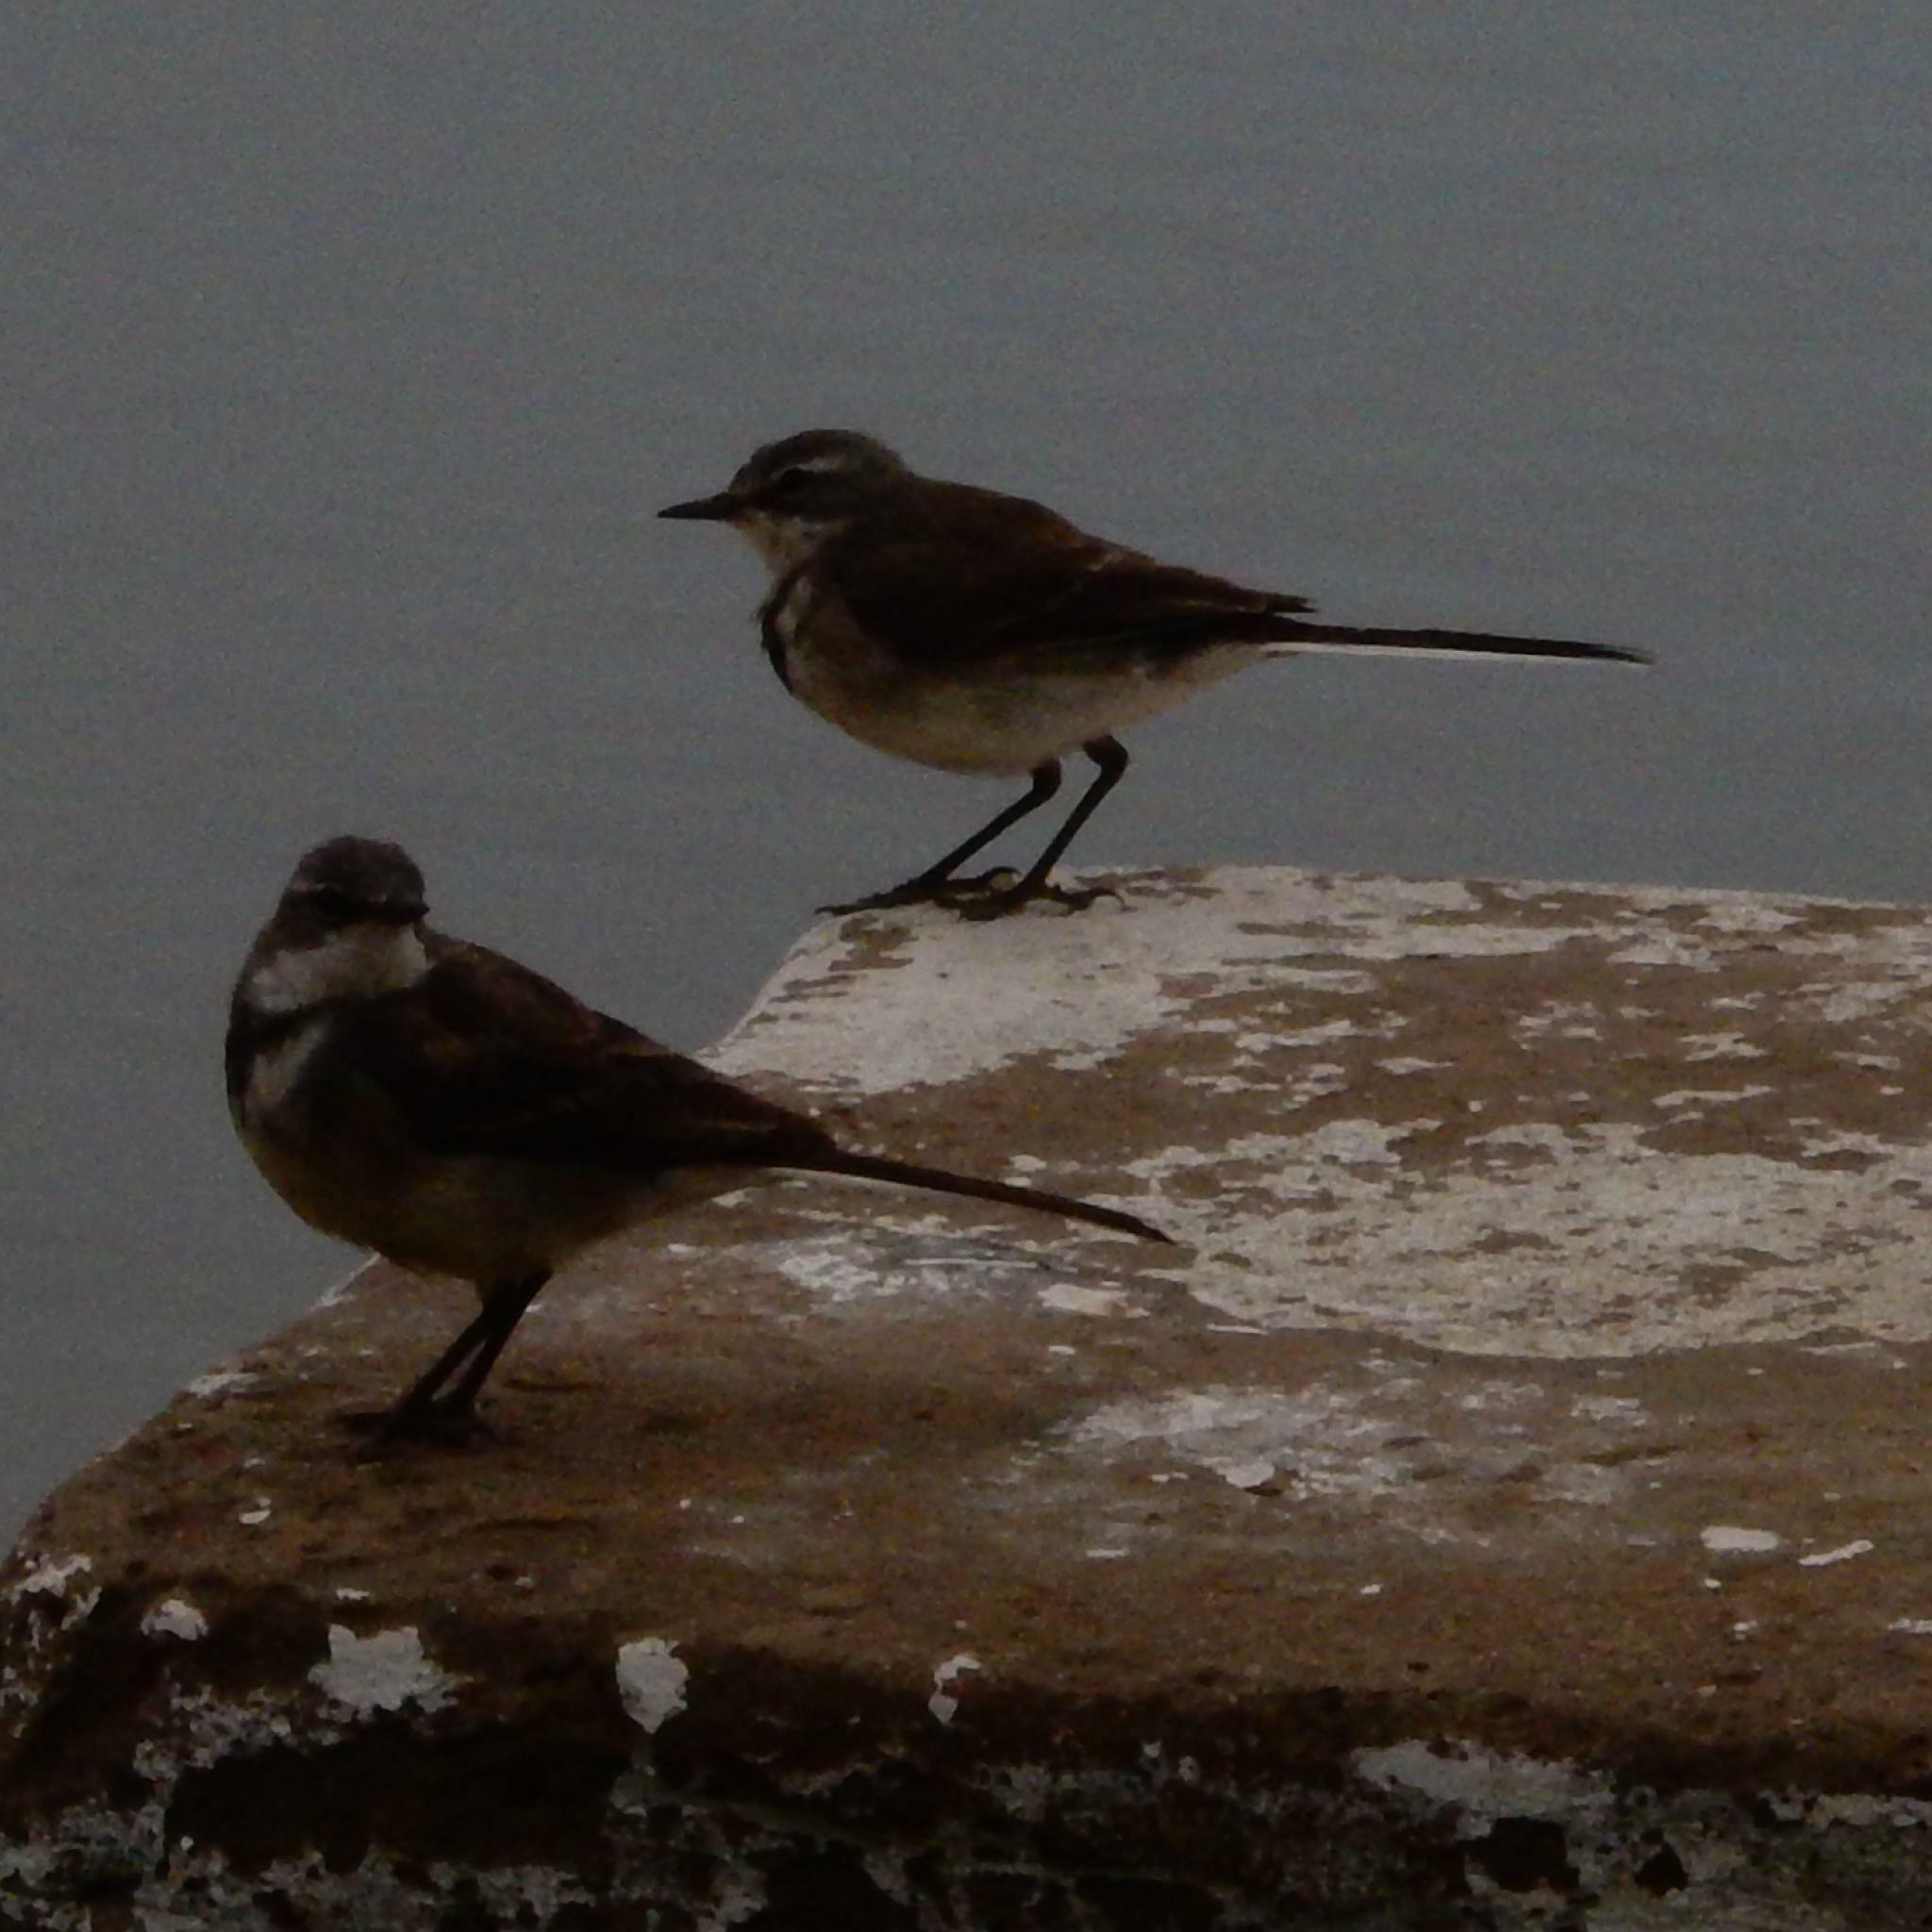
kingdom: Animalia
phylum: Chordata
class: Aves
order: Passeriformes
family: Motacillidae
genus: Motacilla
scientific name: Motacilla capensis
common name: Cape wagtail
